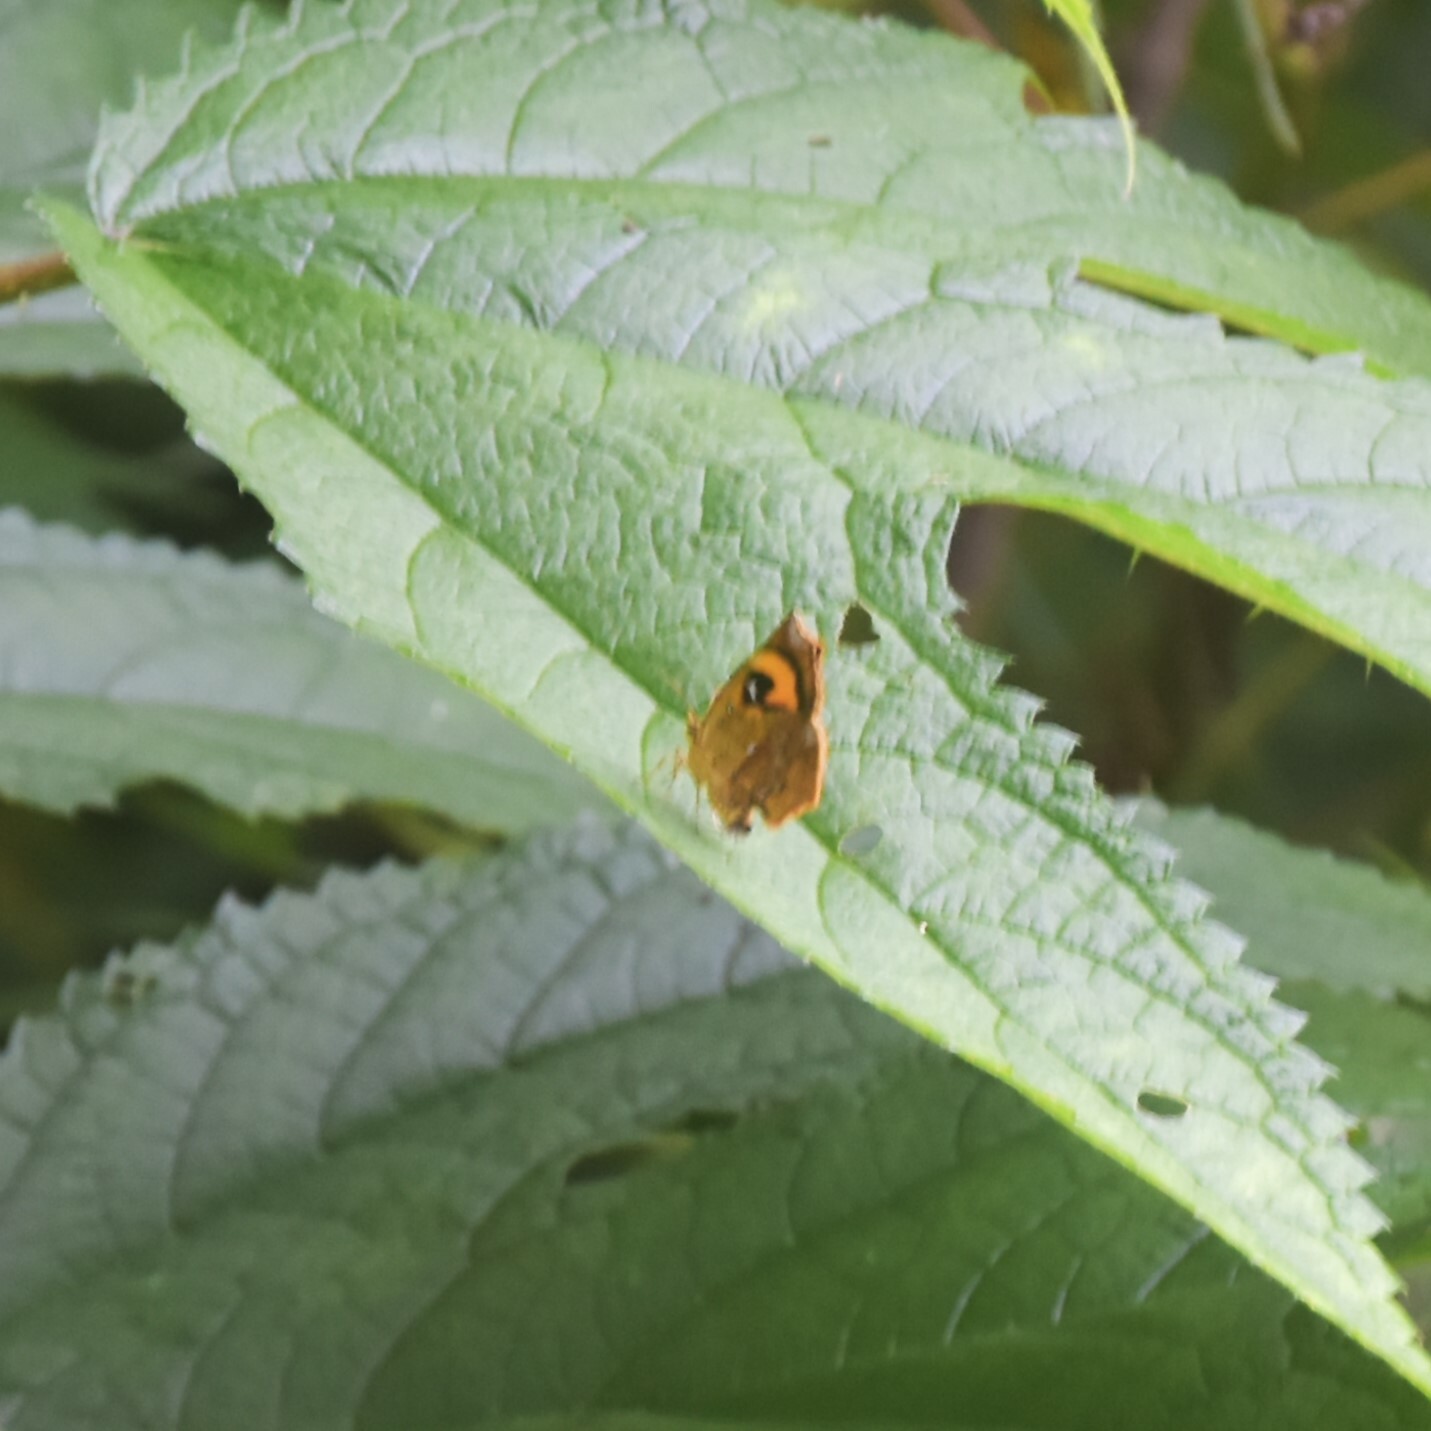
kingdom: Animalia
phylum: Arthropoda
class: Insecta
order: Lepidoptera
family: Callidulidae
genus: Pterodecta
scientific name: Pterodecta anchora
